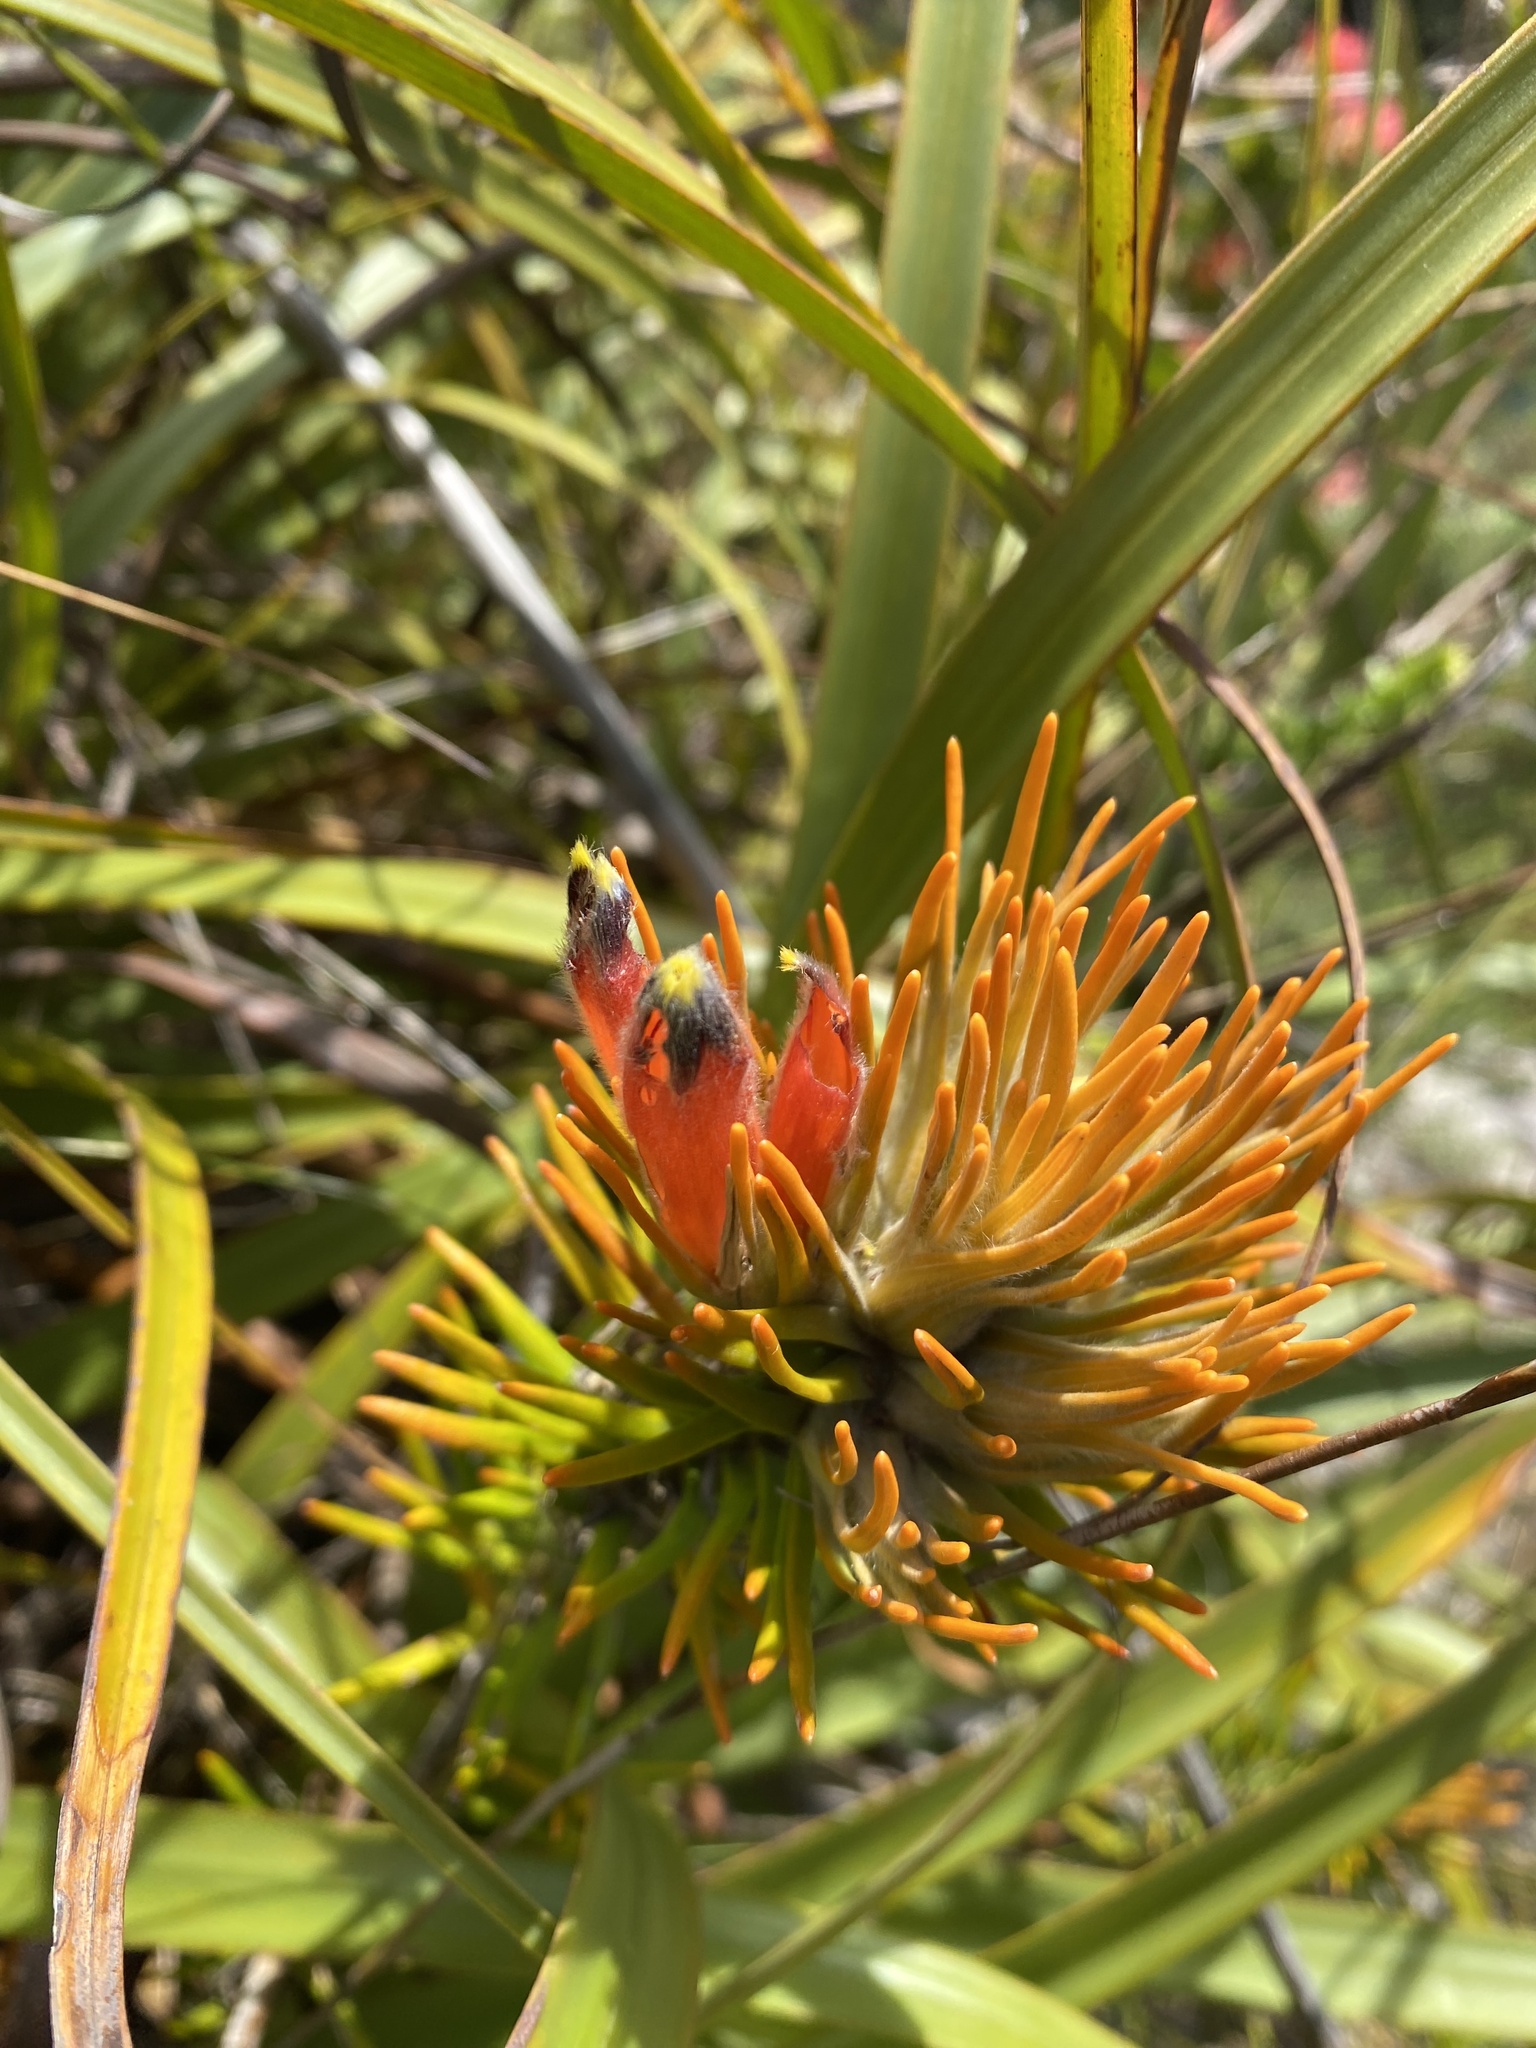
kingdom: Plantae
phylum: Tracheophyta
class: Magnoliopsida
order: Lamiales
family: Stilbaceae
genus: Retzia
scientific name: Retzia capensis
